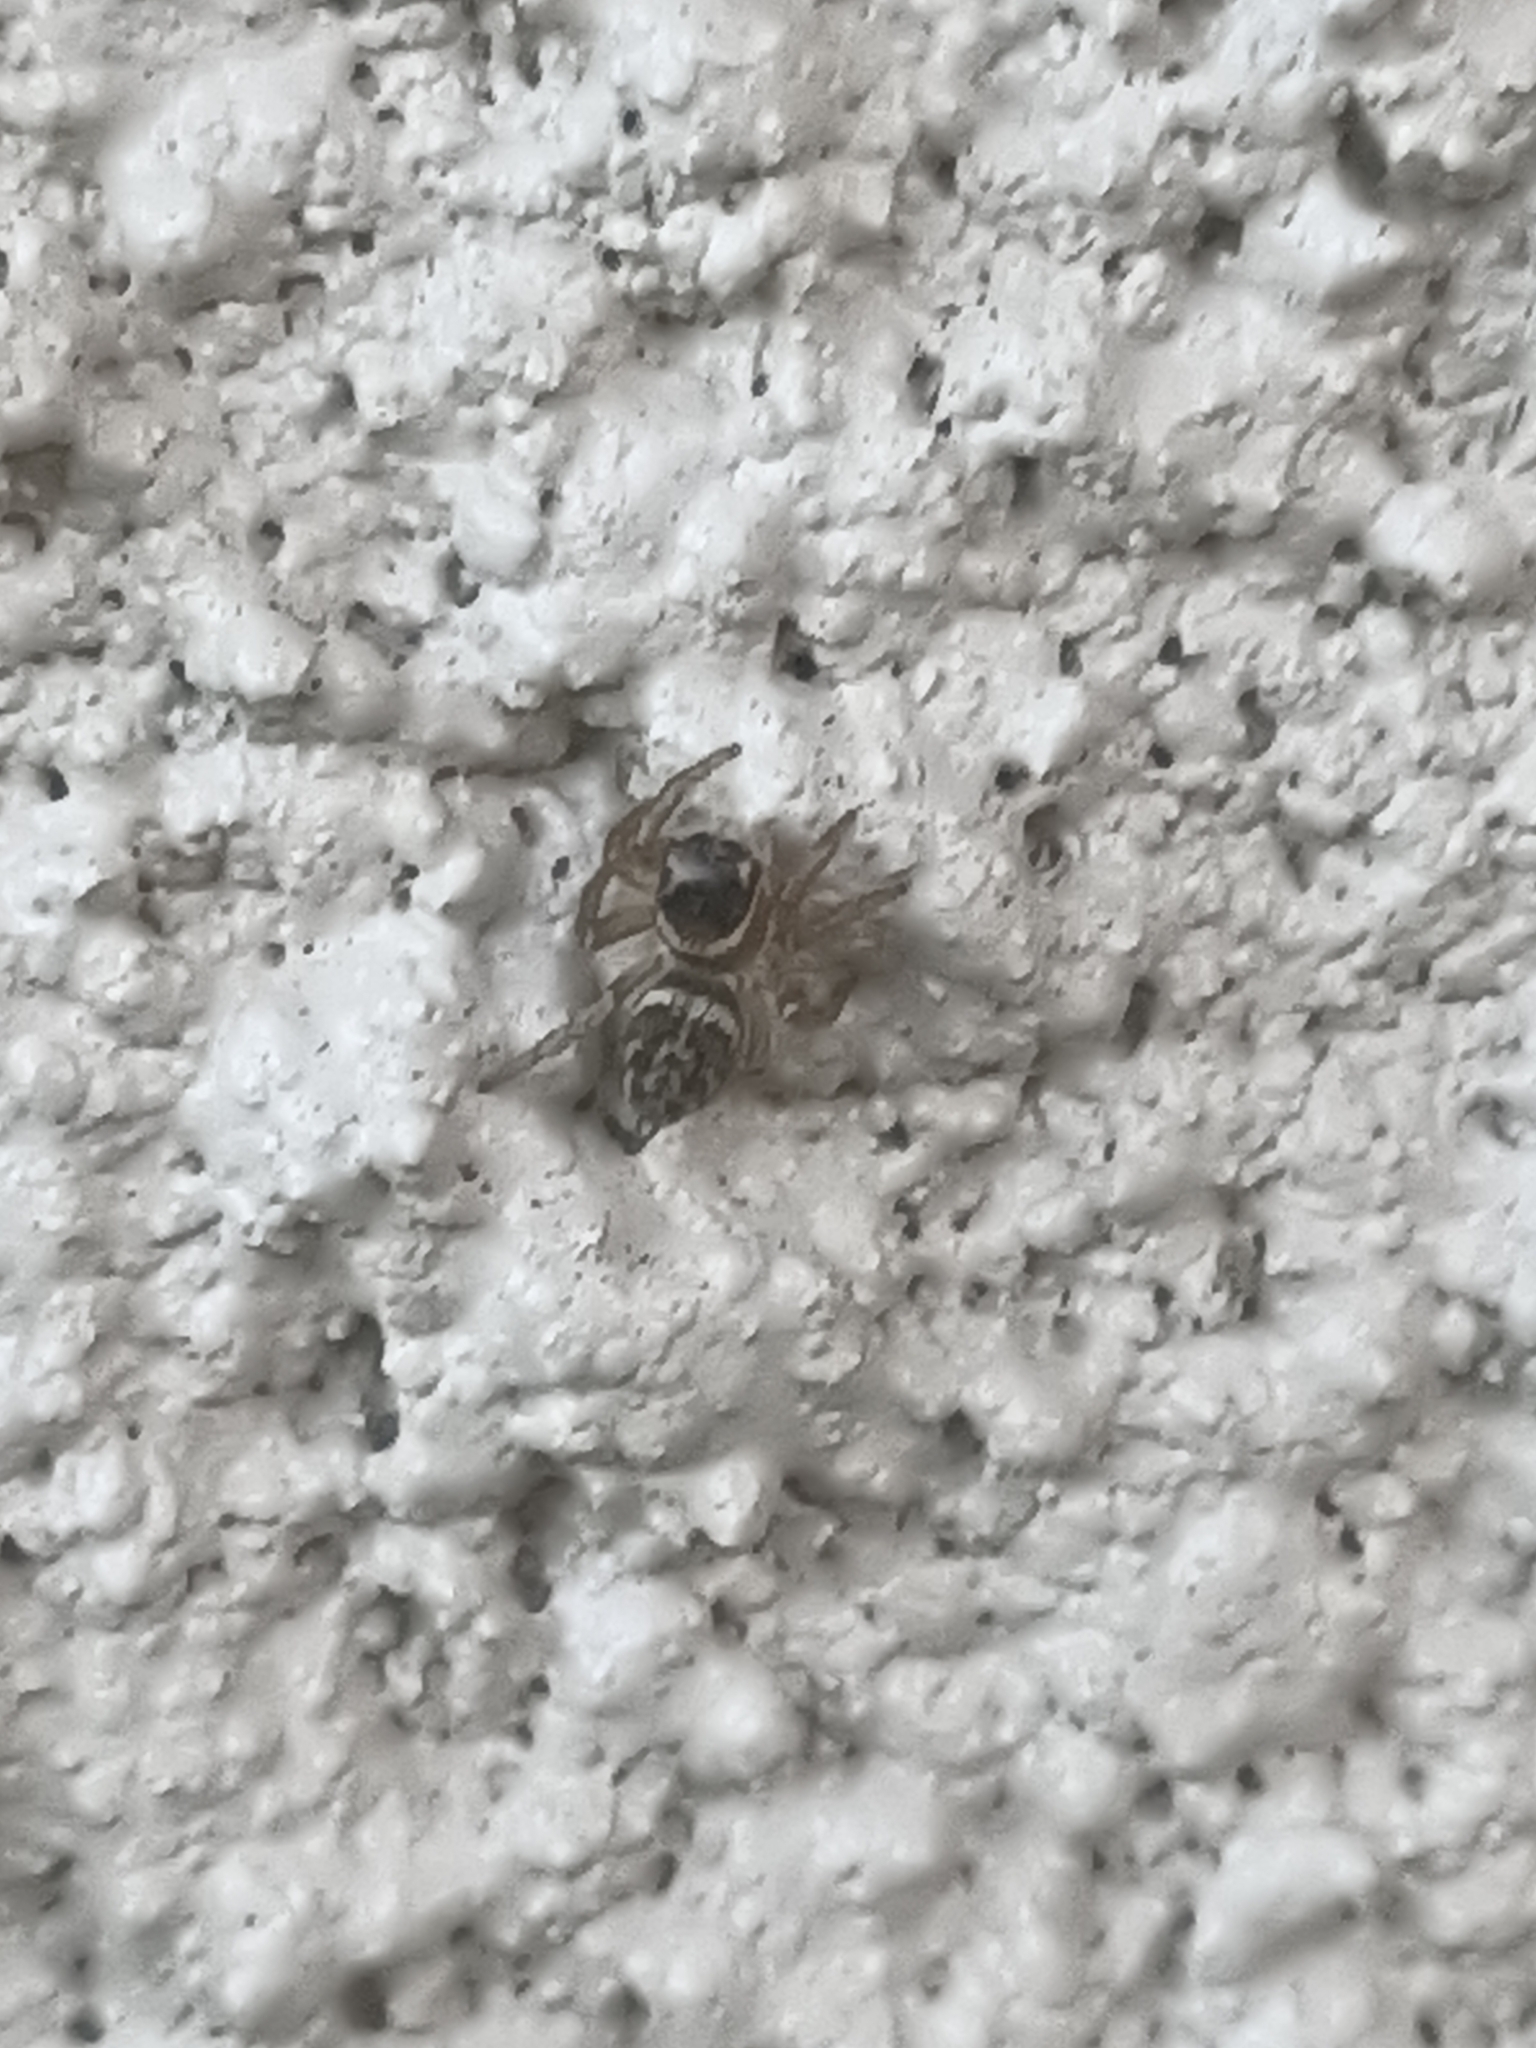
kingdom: Animalia
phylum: Arthropoda
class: Arachnida
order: Araneae
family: Salticidae
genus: Maratus
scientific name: Maratus griseus
